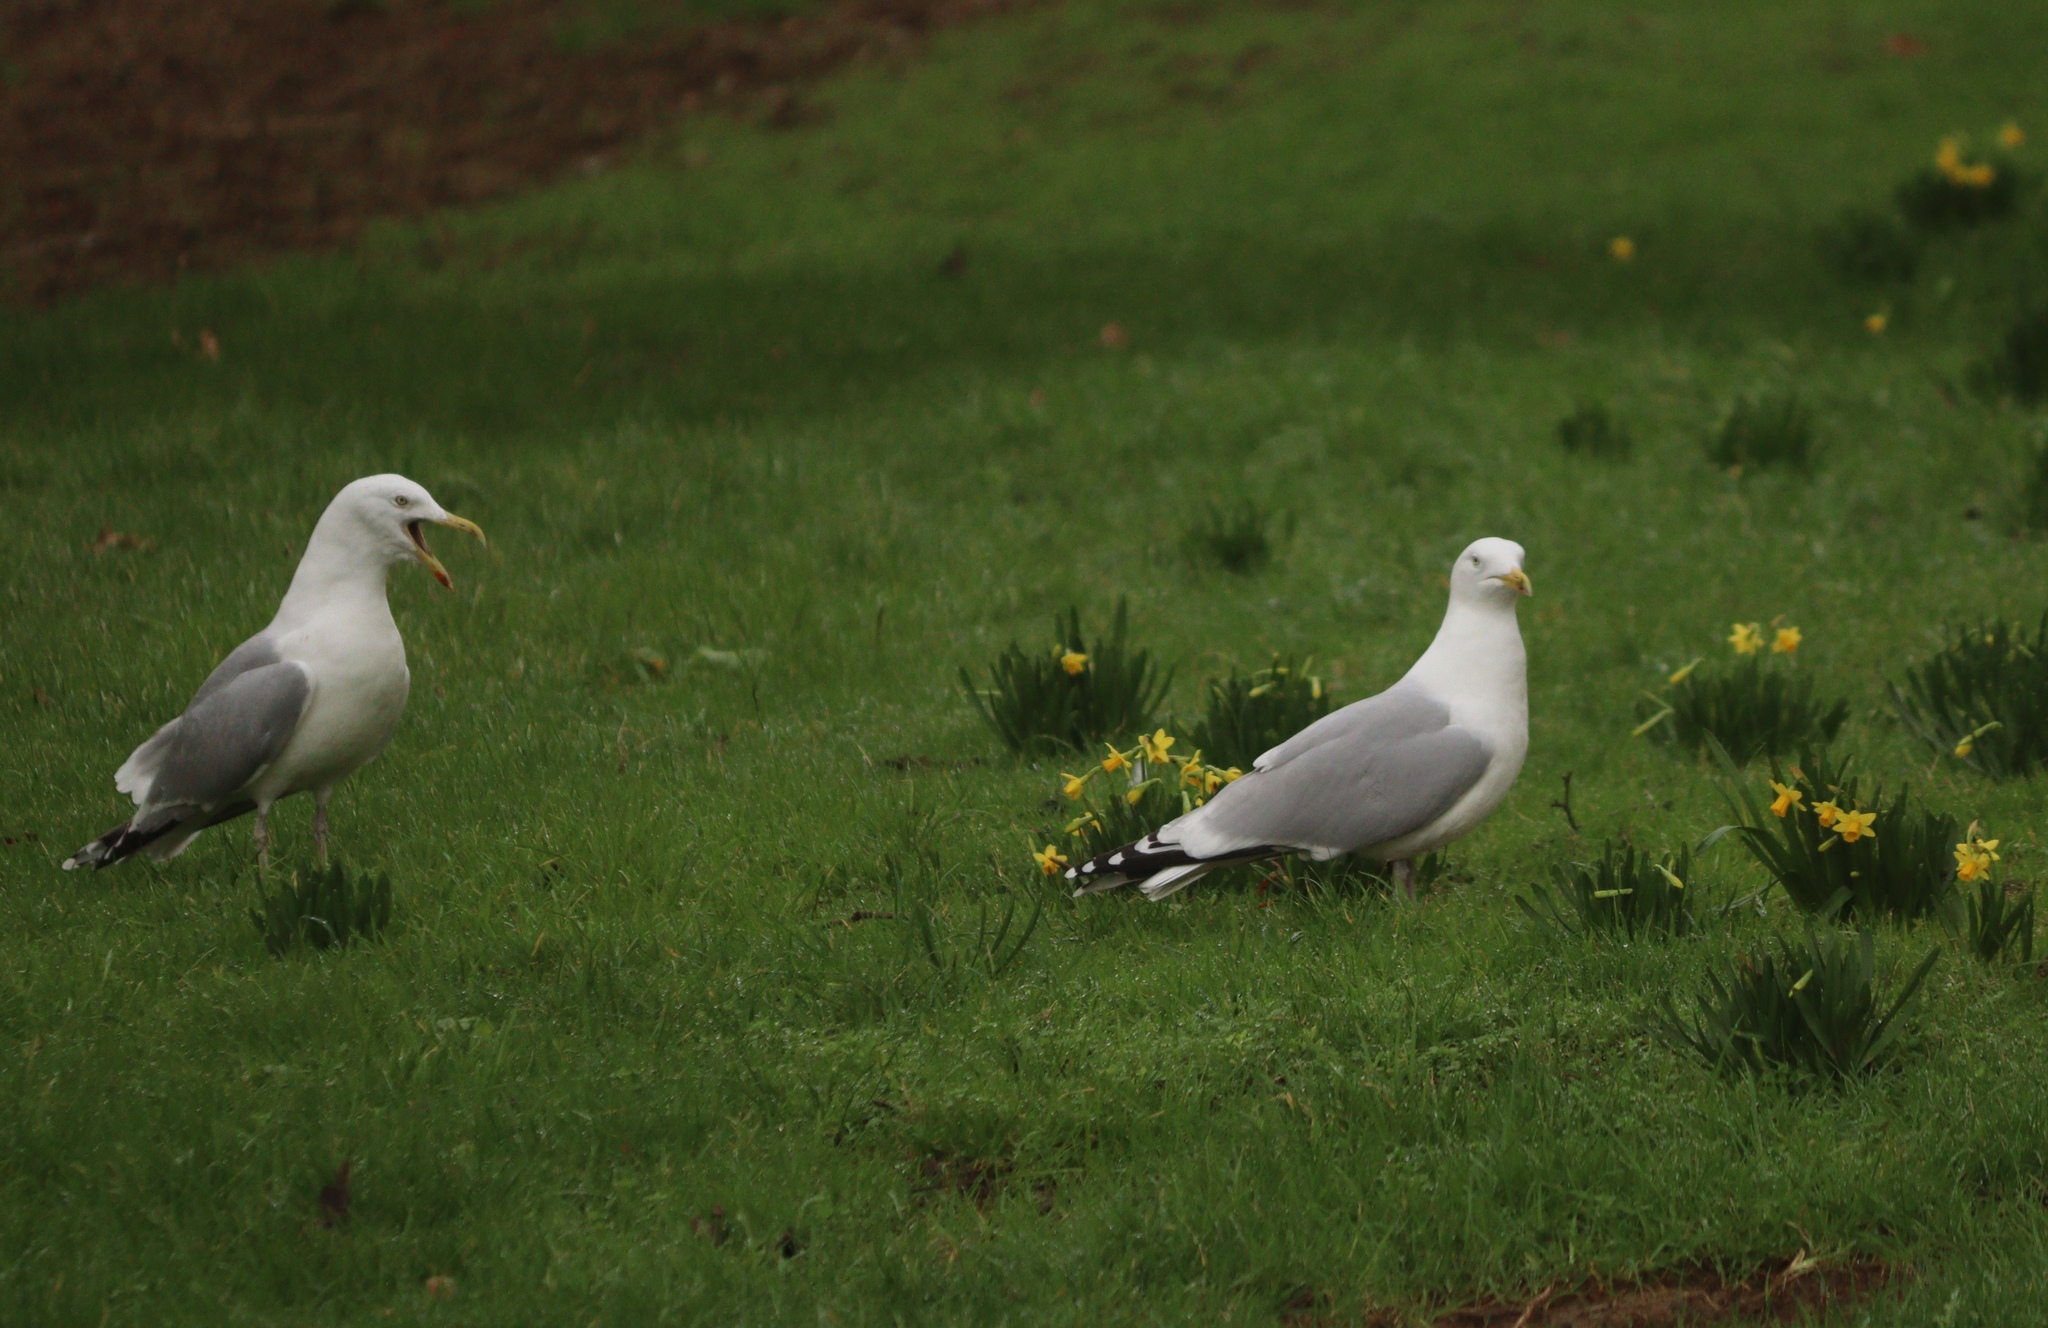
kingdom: Animalia
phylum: Chordata
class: Aves
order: Charadriiformes
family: Laridae
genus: Larus
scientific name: Larus argentatus
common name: Herring gull
